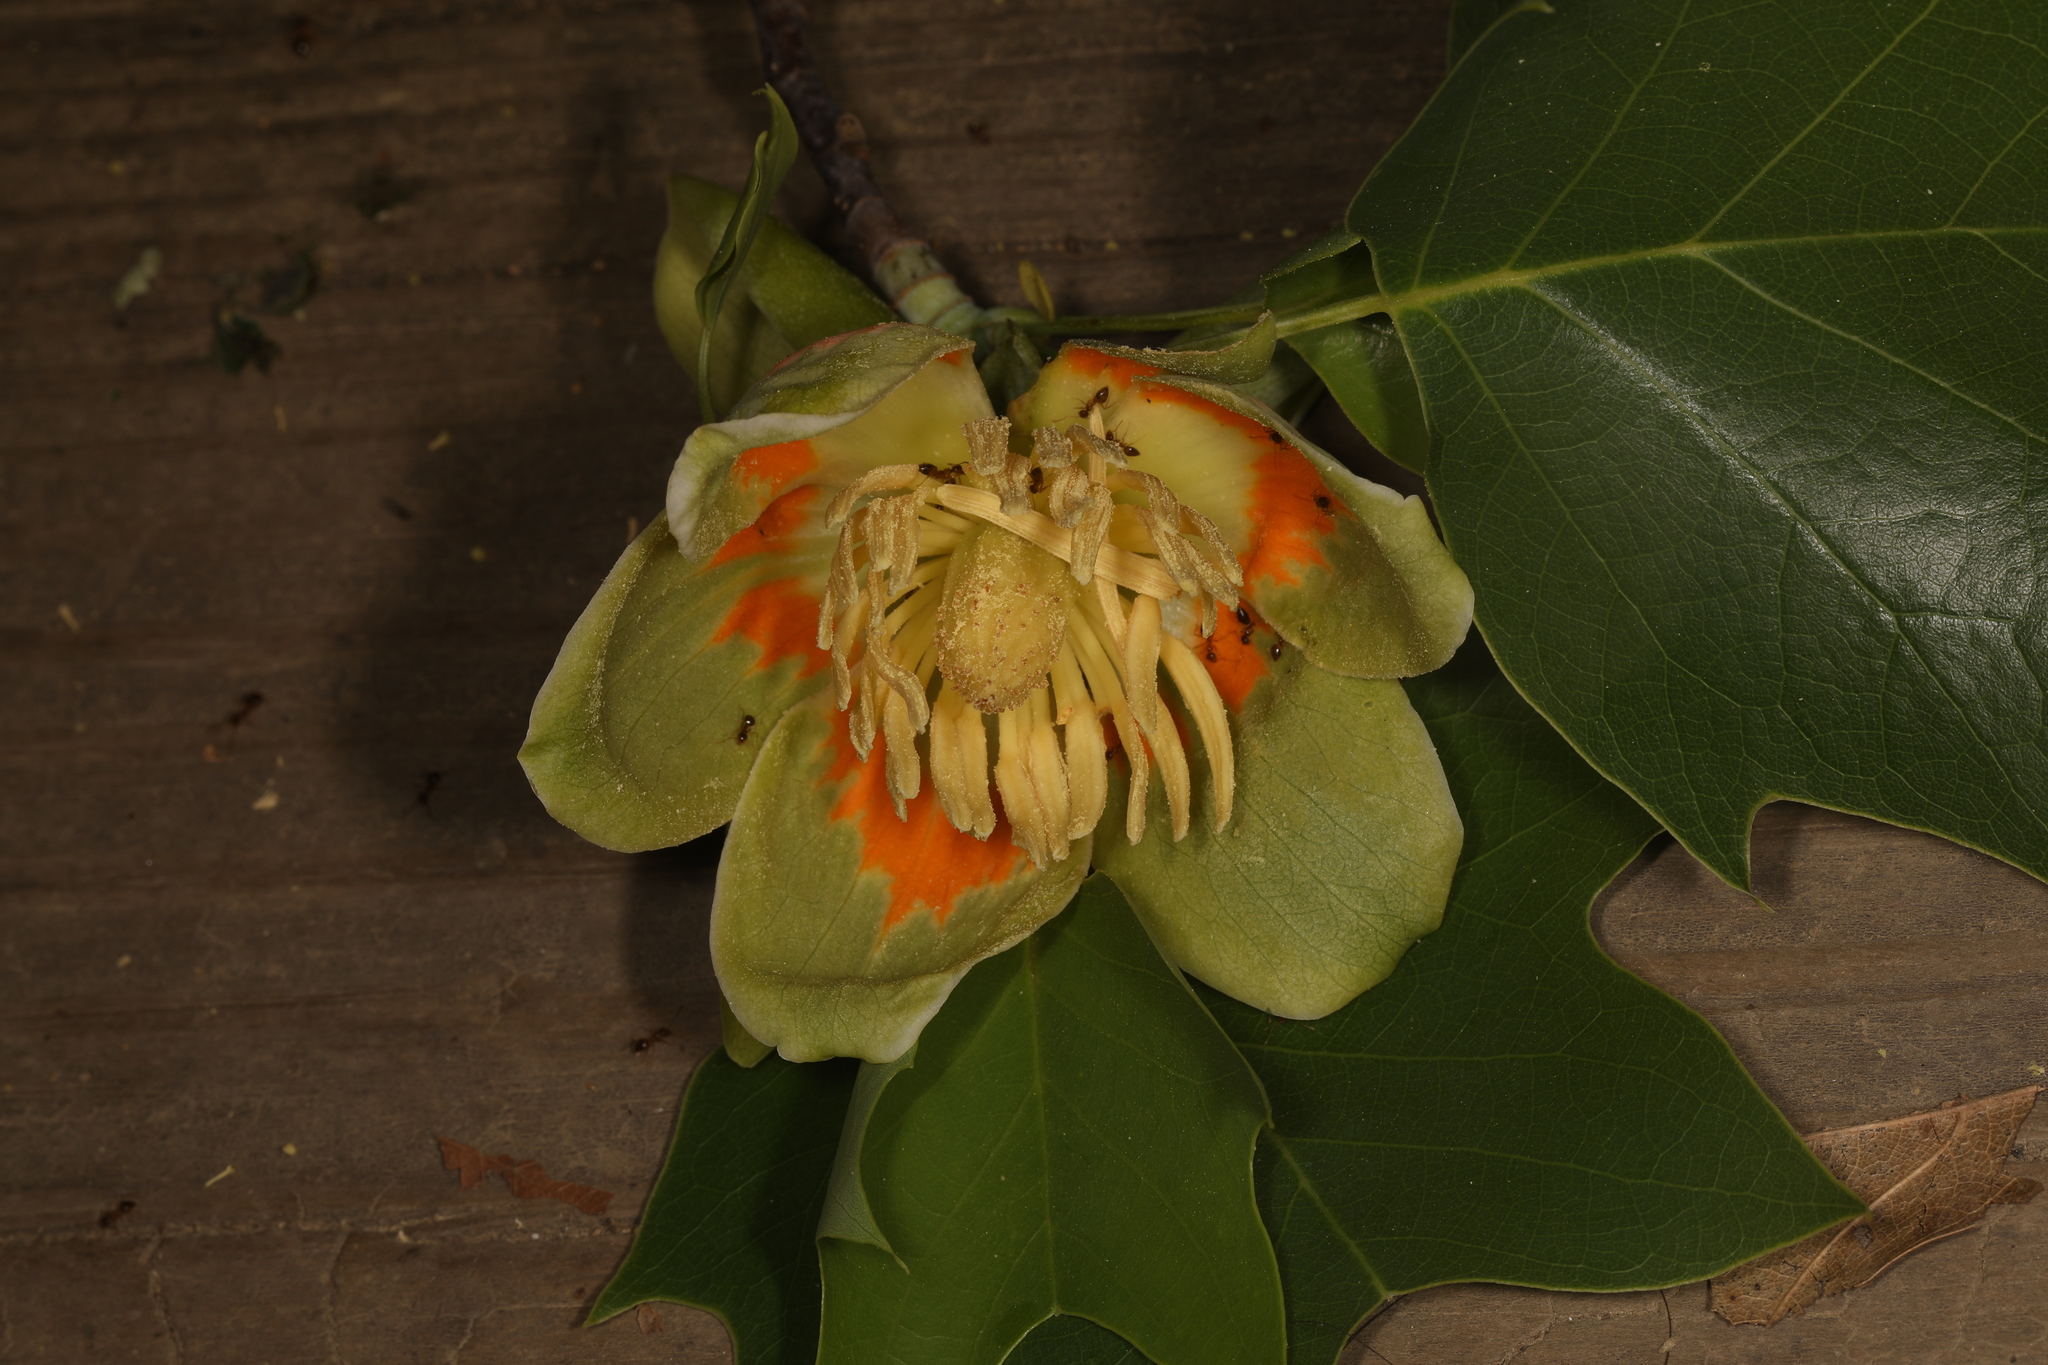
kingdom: Plantae
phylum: Tracheophyta
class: Magnoliopsida
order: Magnoliales
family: Magnoliaceae
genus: Liriodendron
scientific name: Liriodendron tulipifera
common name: Tulip tree
